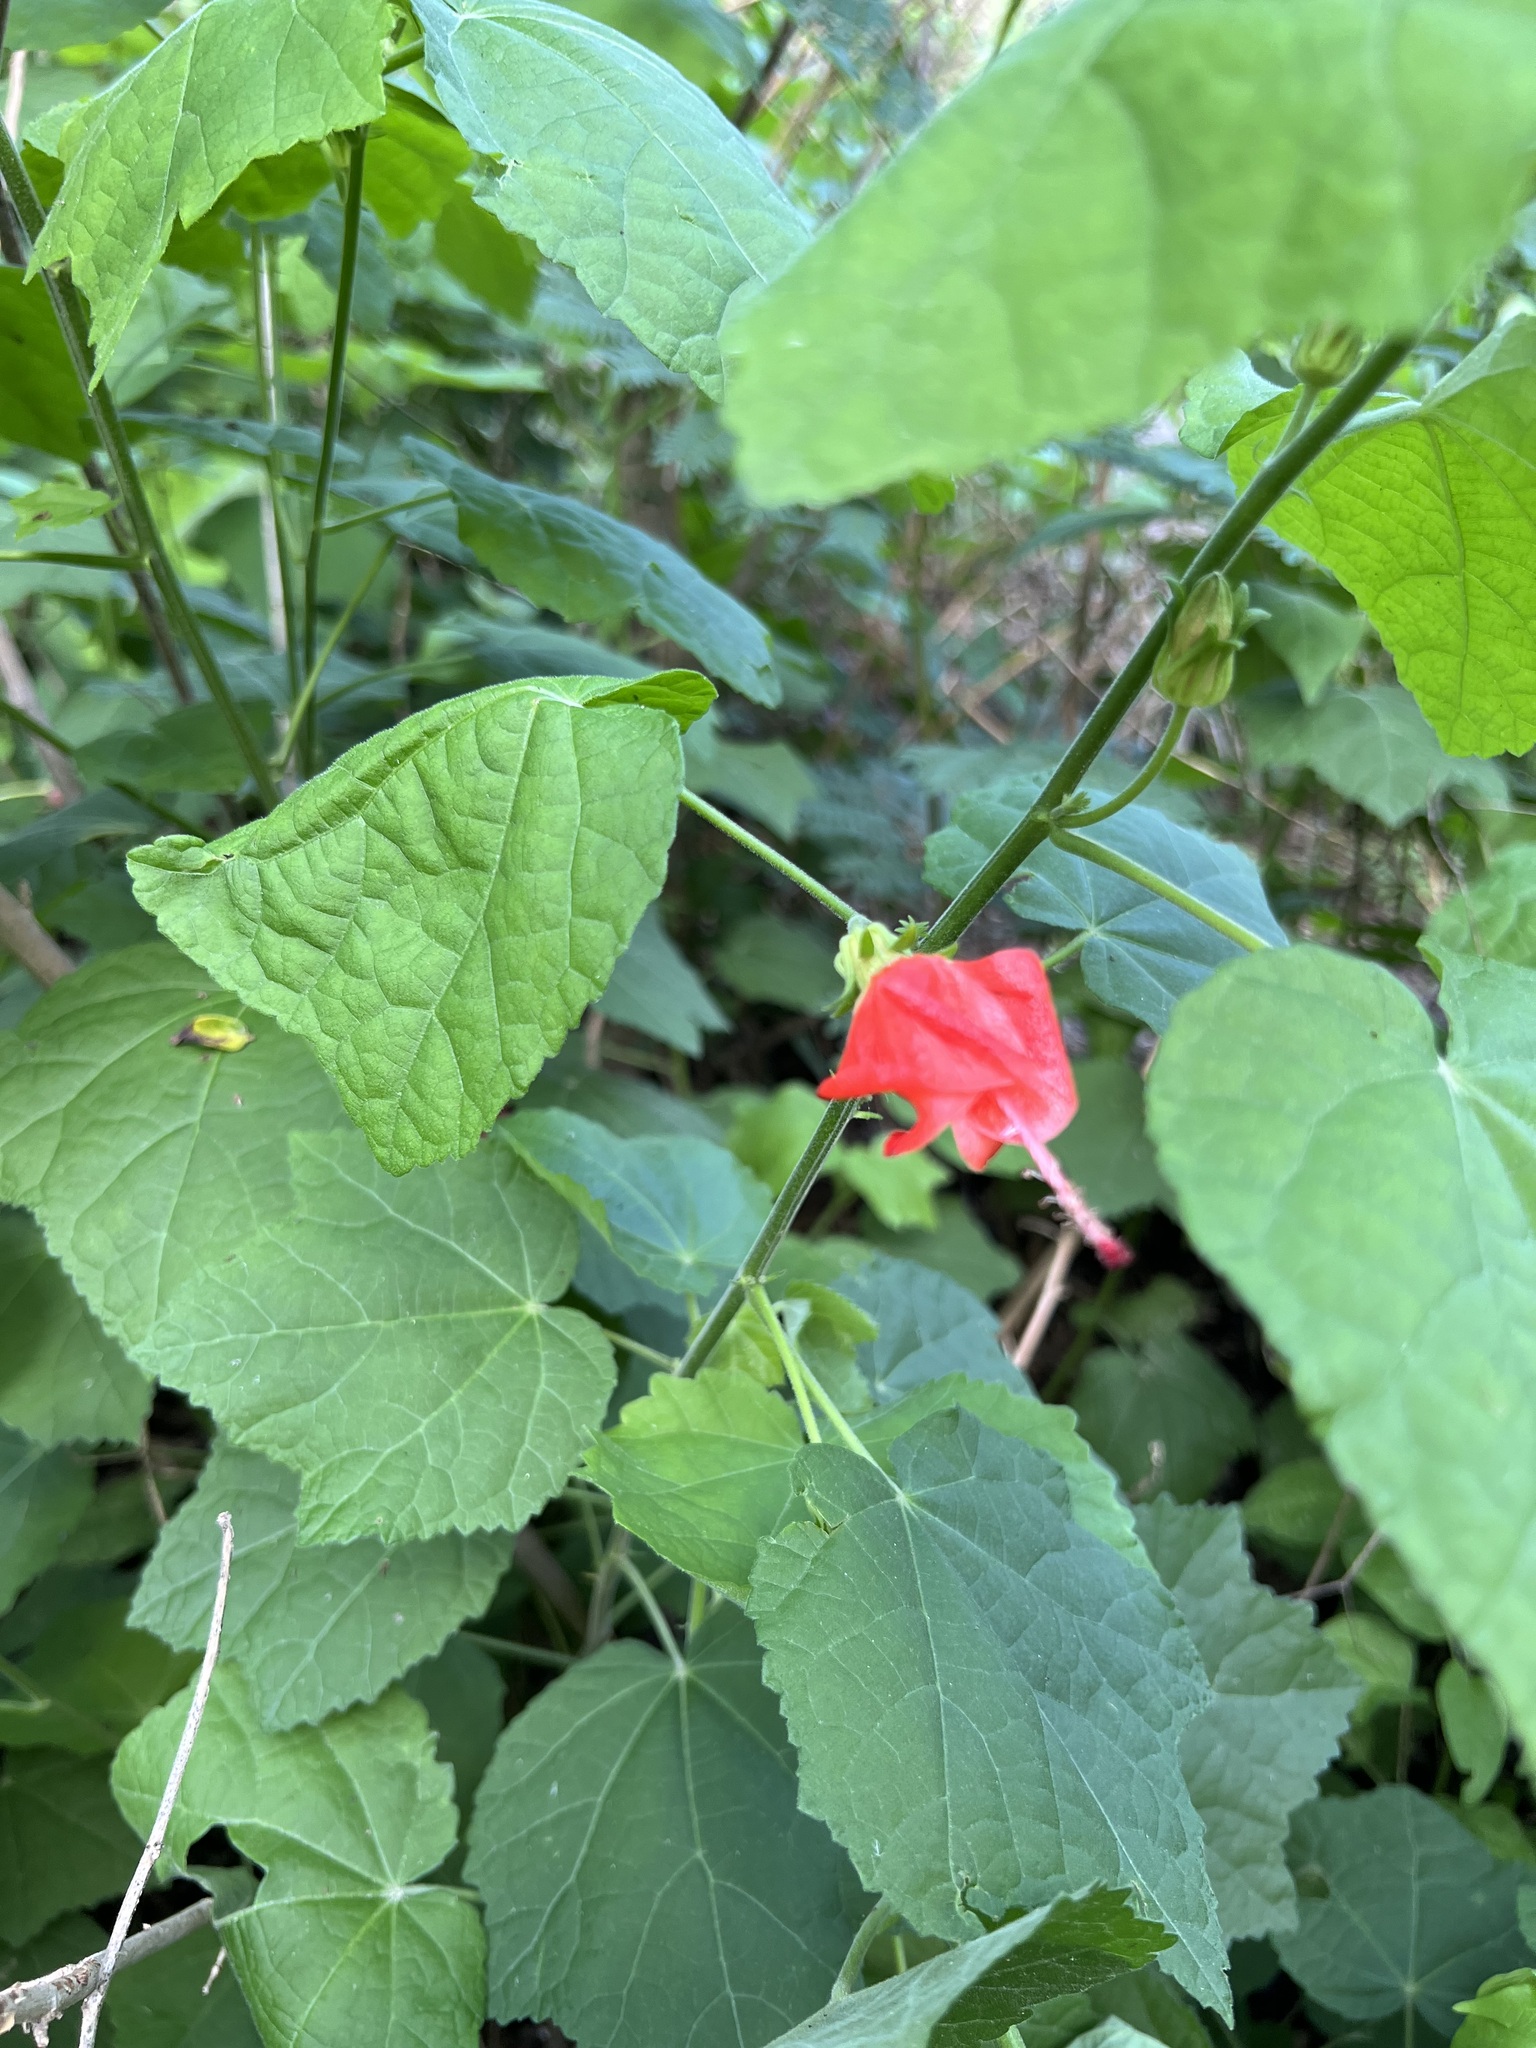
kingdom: Plantae
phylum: Tracheophyta
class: Magnoliopsida
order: Malvales
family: Malvaceae
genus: Malvaviscus
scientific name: Malvaviscus arboreus
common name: Wax mallow
